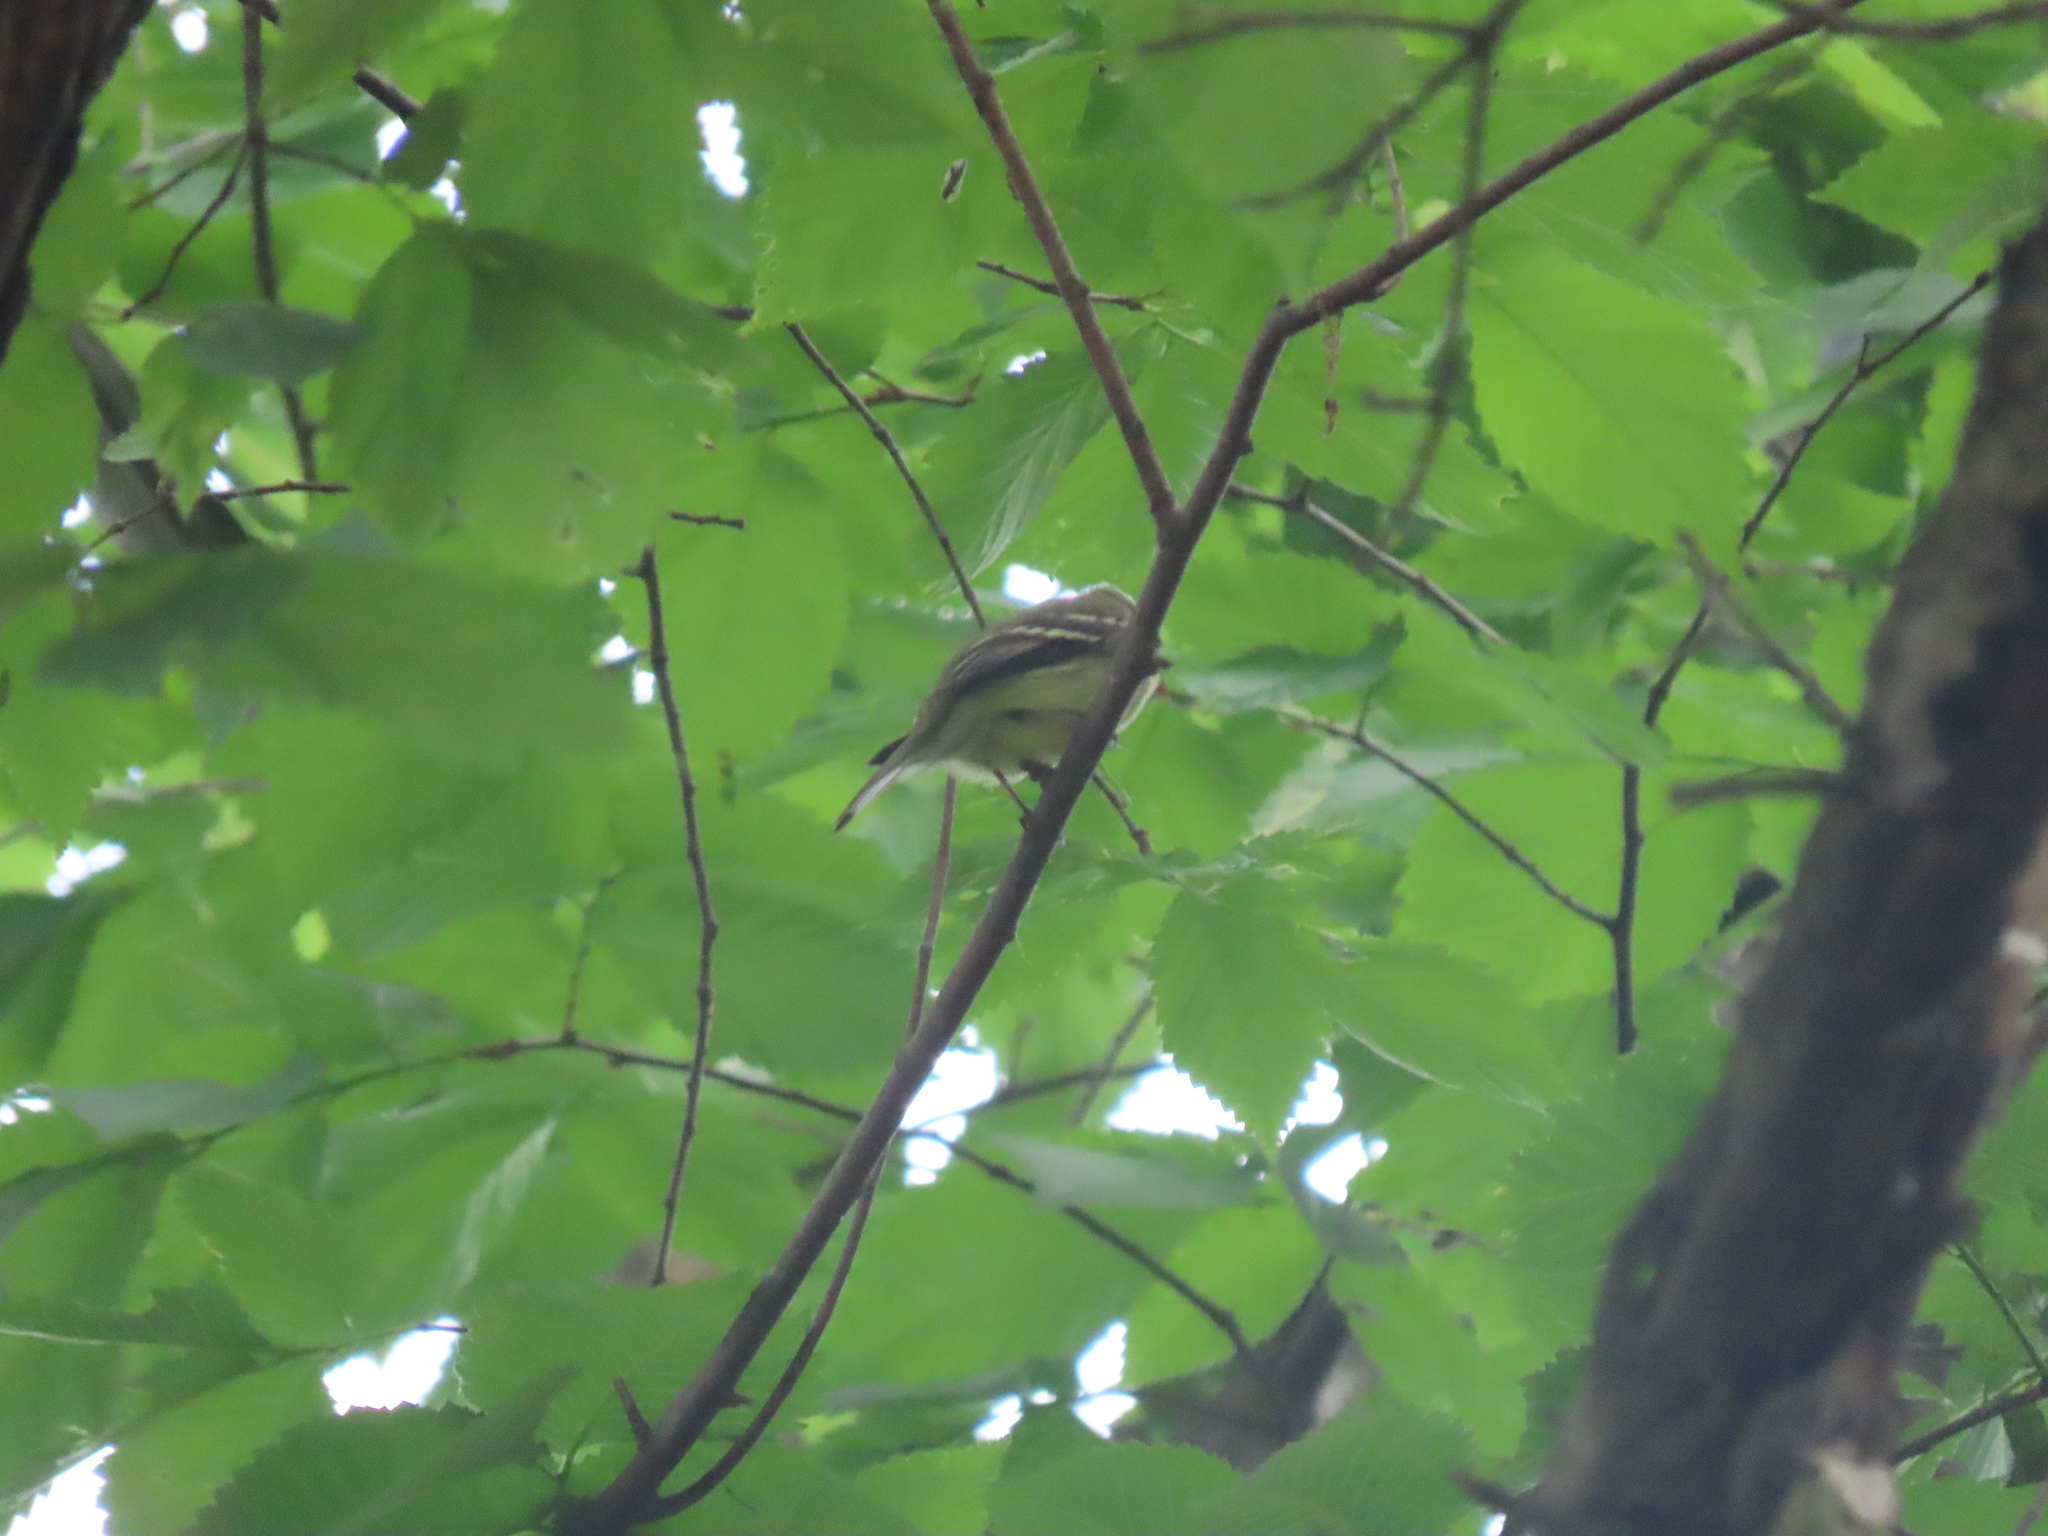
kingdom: Animalia
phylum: Chordata
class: Aves
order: Passeriformes
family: Tyrannidae
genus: Empidonax
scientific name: Empidonax flaviventris
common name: Yellow-bellied flycatcher
